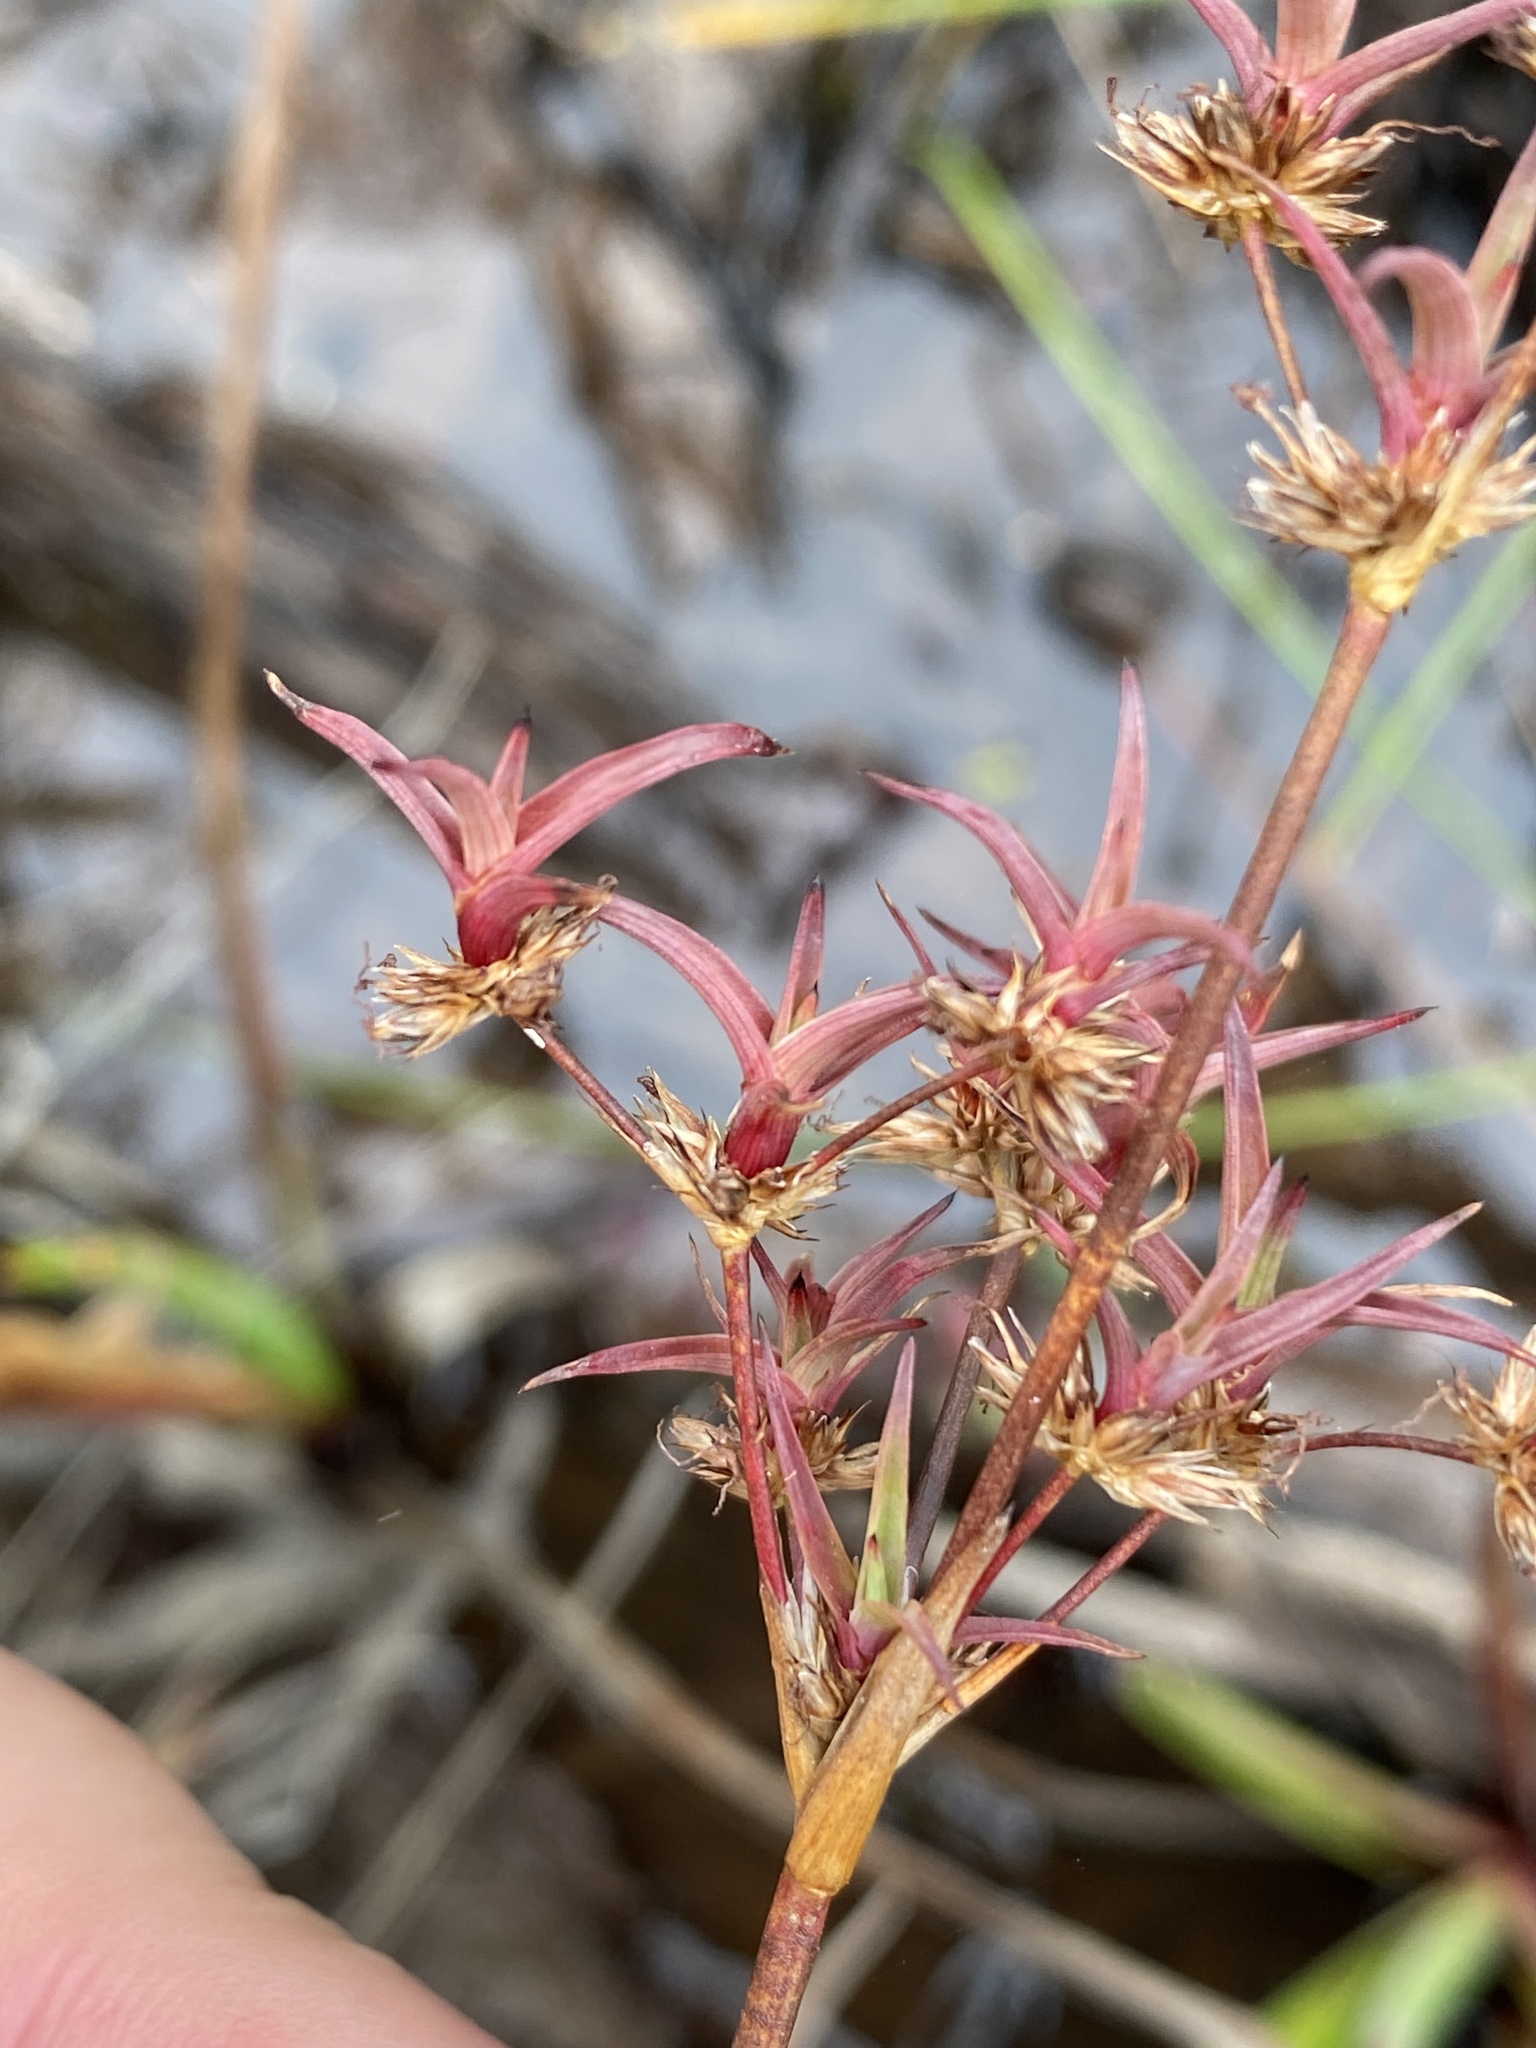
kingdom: Plantae
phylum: Tracheophyta
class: Liliopsida
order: Poales
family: Juncaceae
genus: Juncus
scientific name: Juncus lomatophyllus
